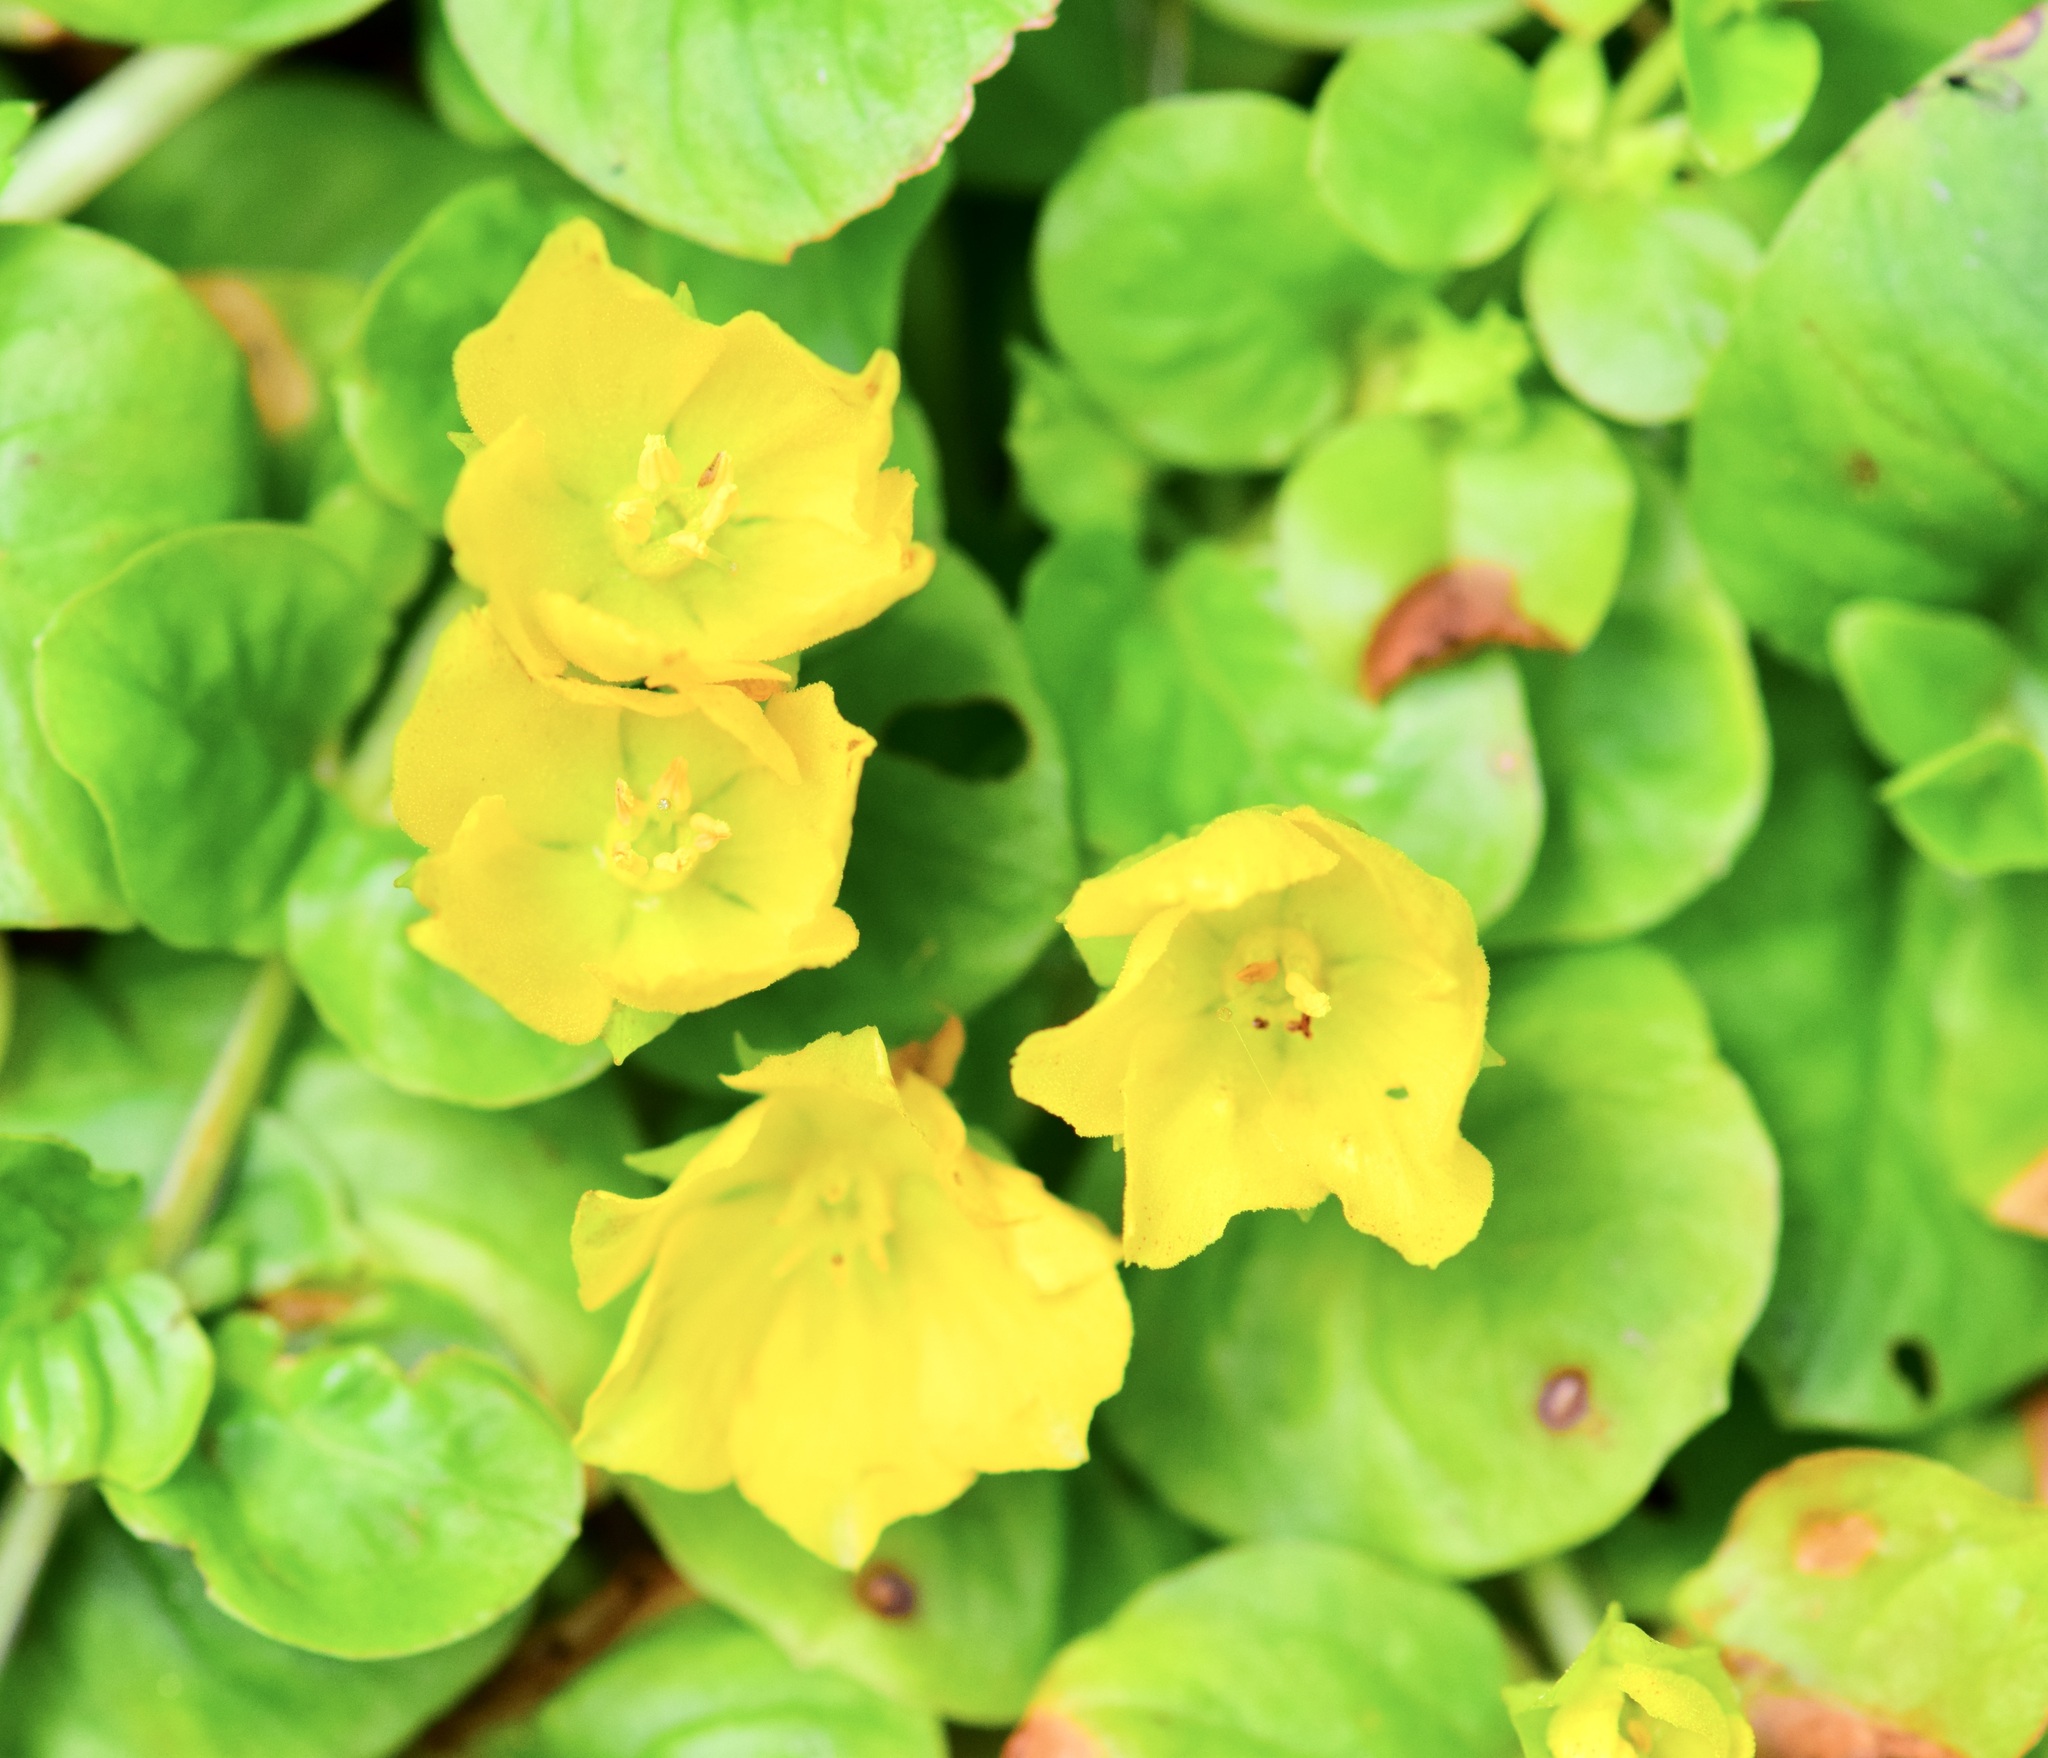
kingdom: Plantae
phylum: Tracheophyta
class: Magnoliopsida
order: Ericales
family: Primulaceae
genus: Lysimachia
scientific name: Lysimachia nummularia
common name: Moneywort
